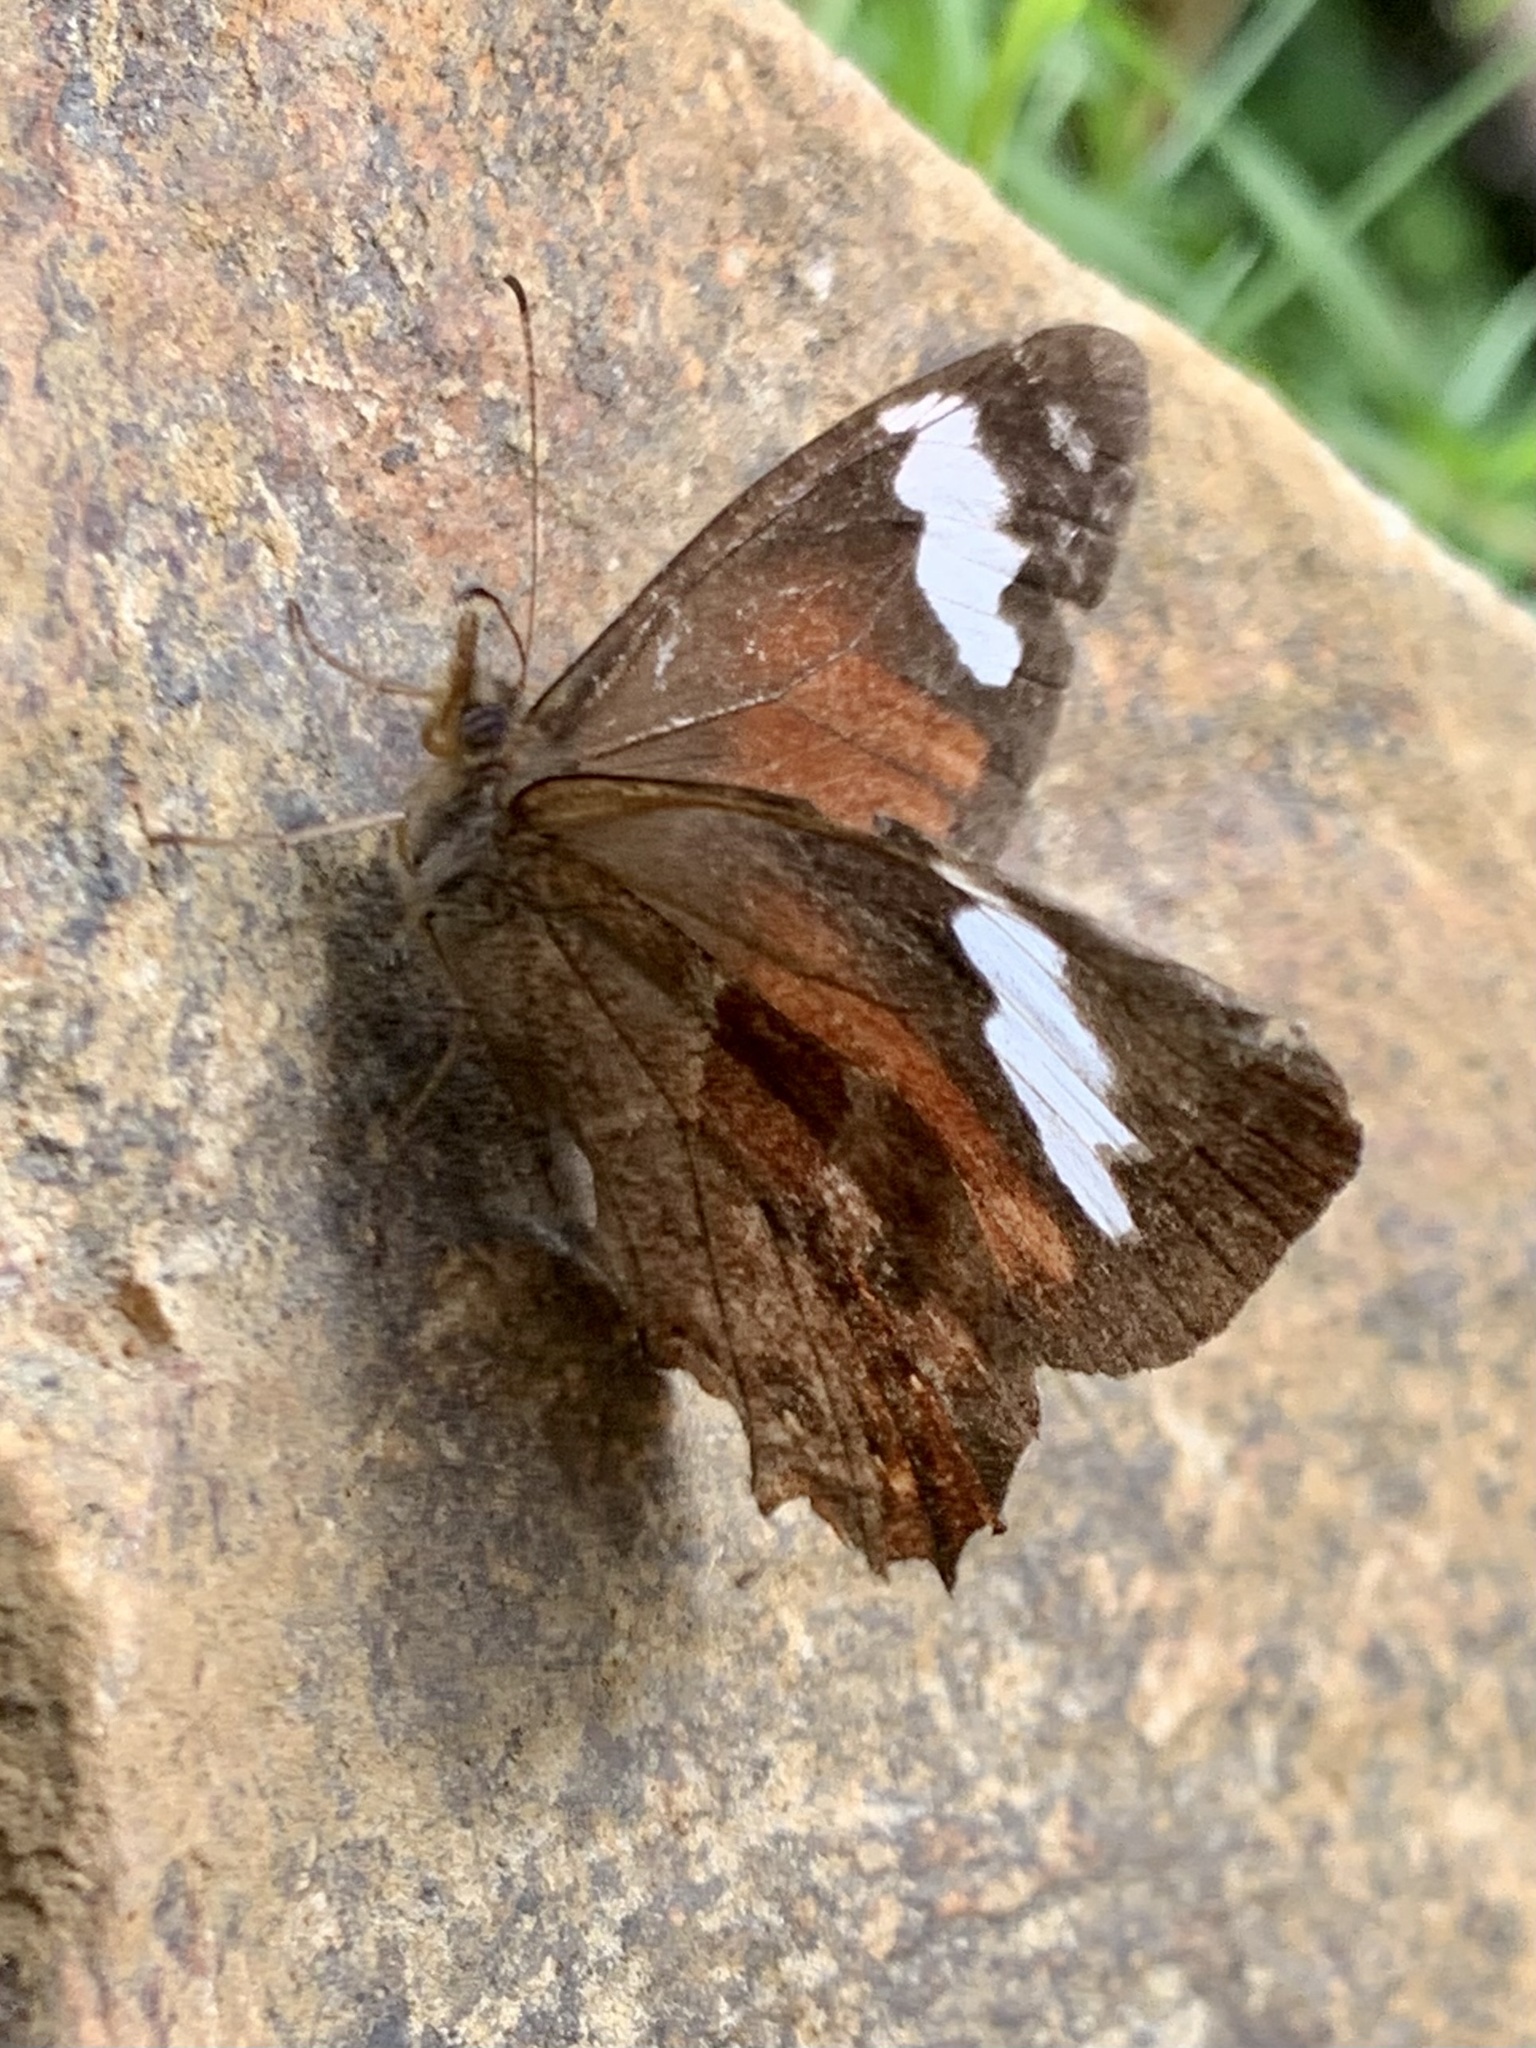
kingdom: Animalia
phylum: Arthropoda
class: Insecta
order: Lepidoptera
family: Nymphalidae
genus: Lasiophila
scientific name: Lasiophila prosymna
